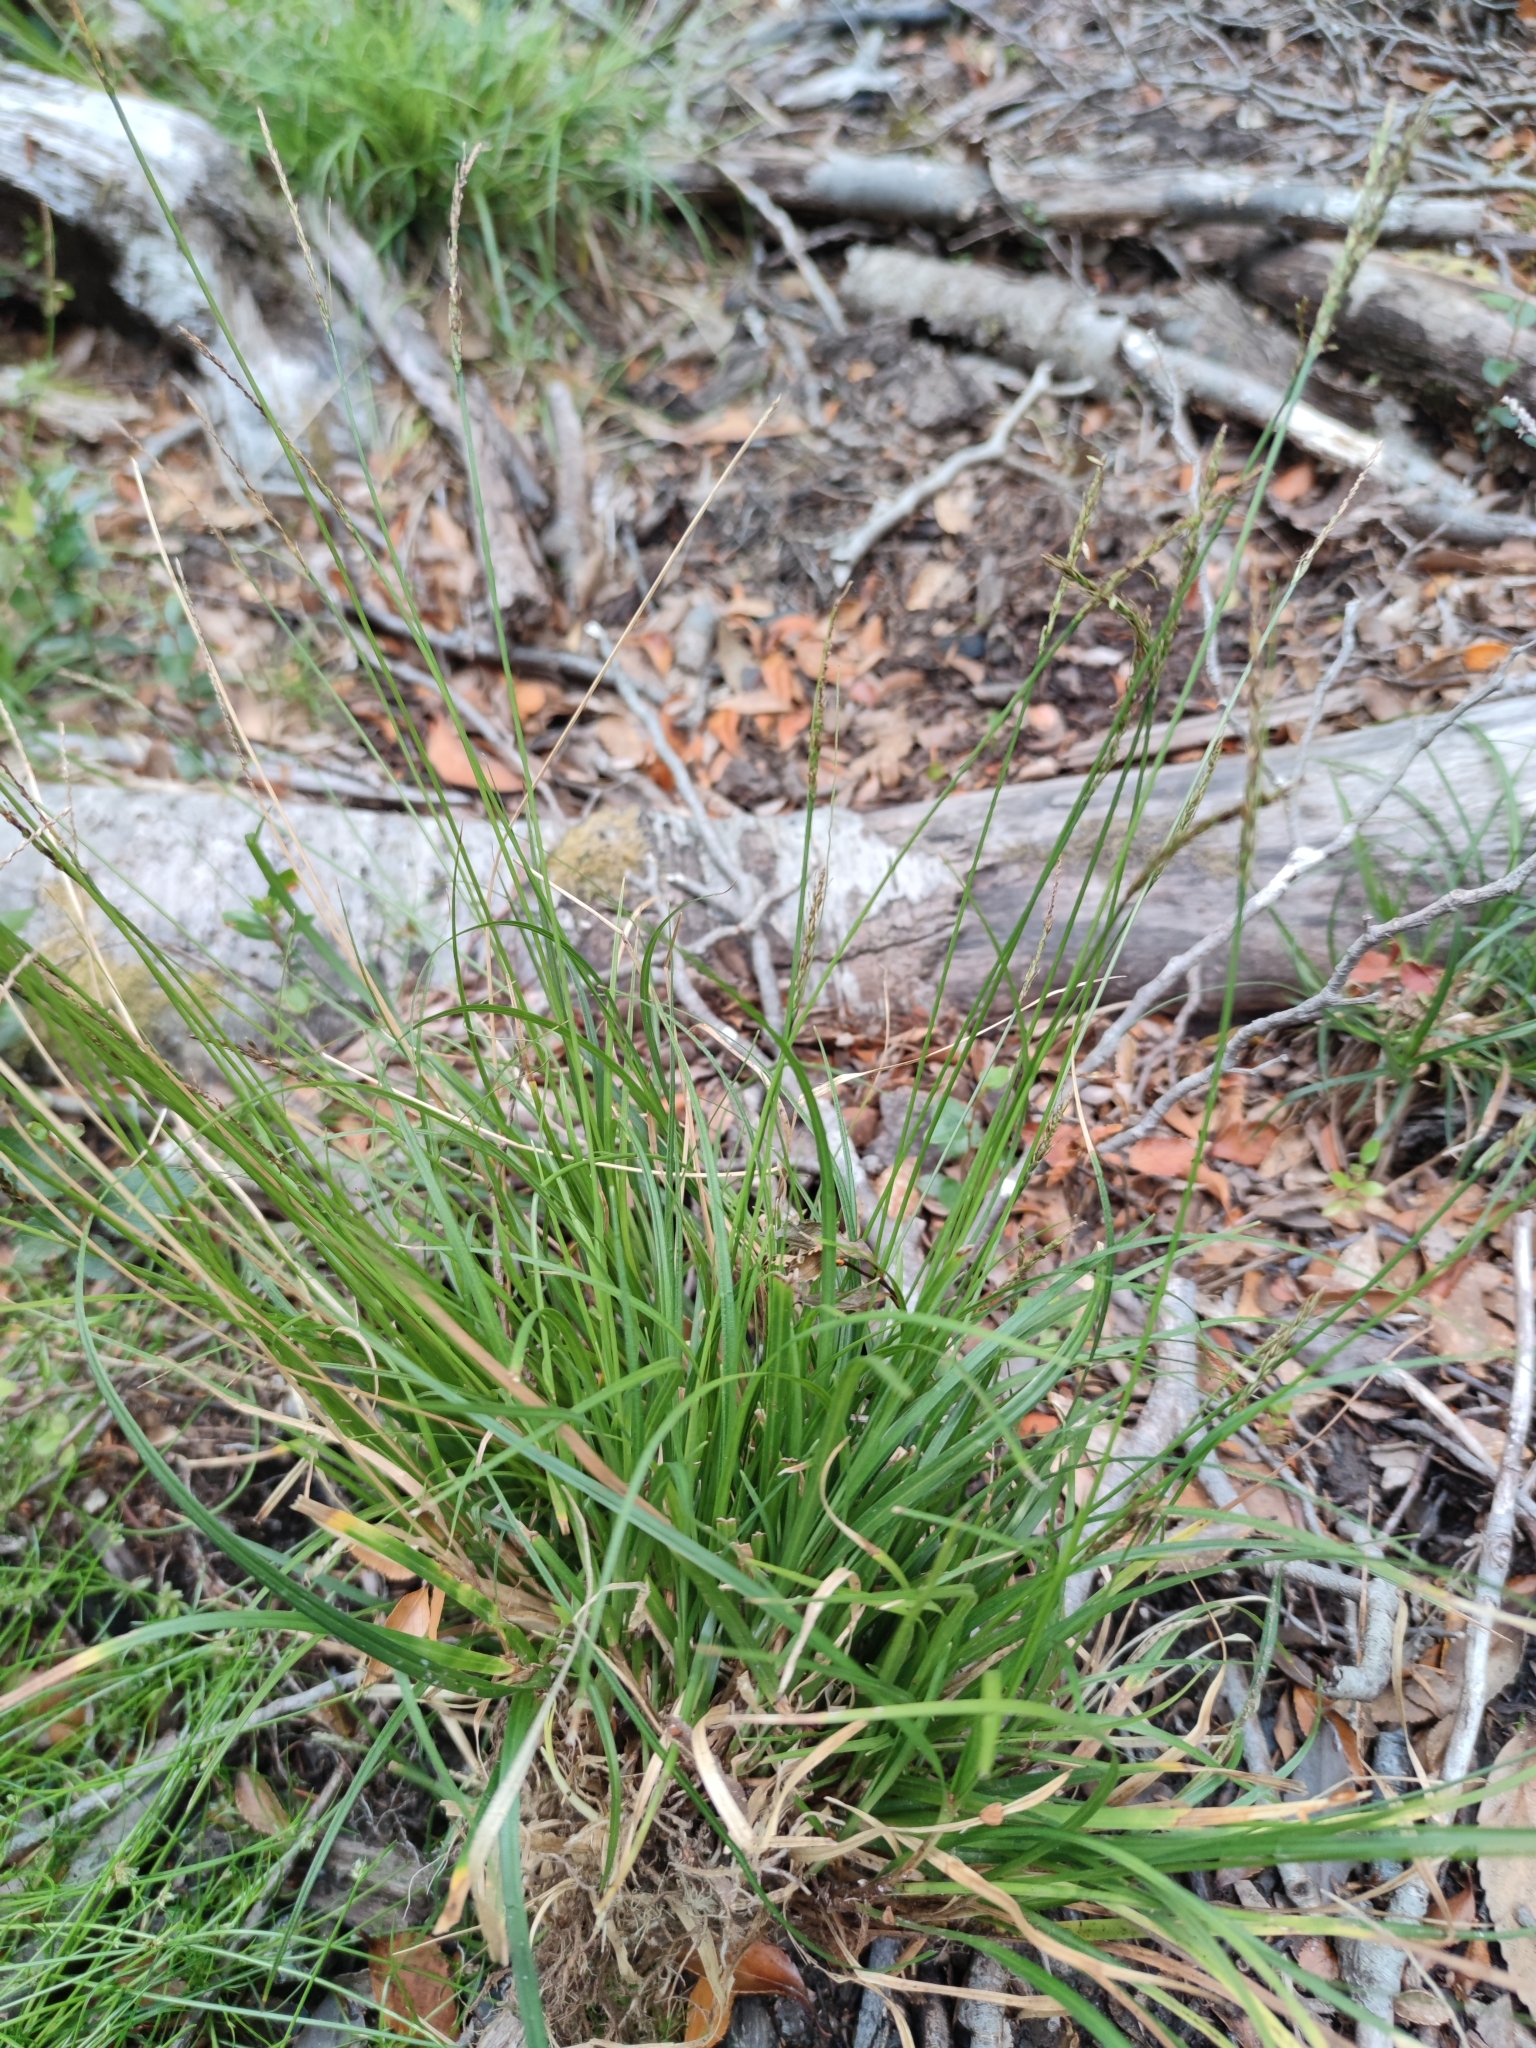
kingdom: Plantae
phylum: Tracheophyta
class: Liliopsida
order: Poales
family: Cyperaceae
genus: Carex
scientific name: Carex firmula
